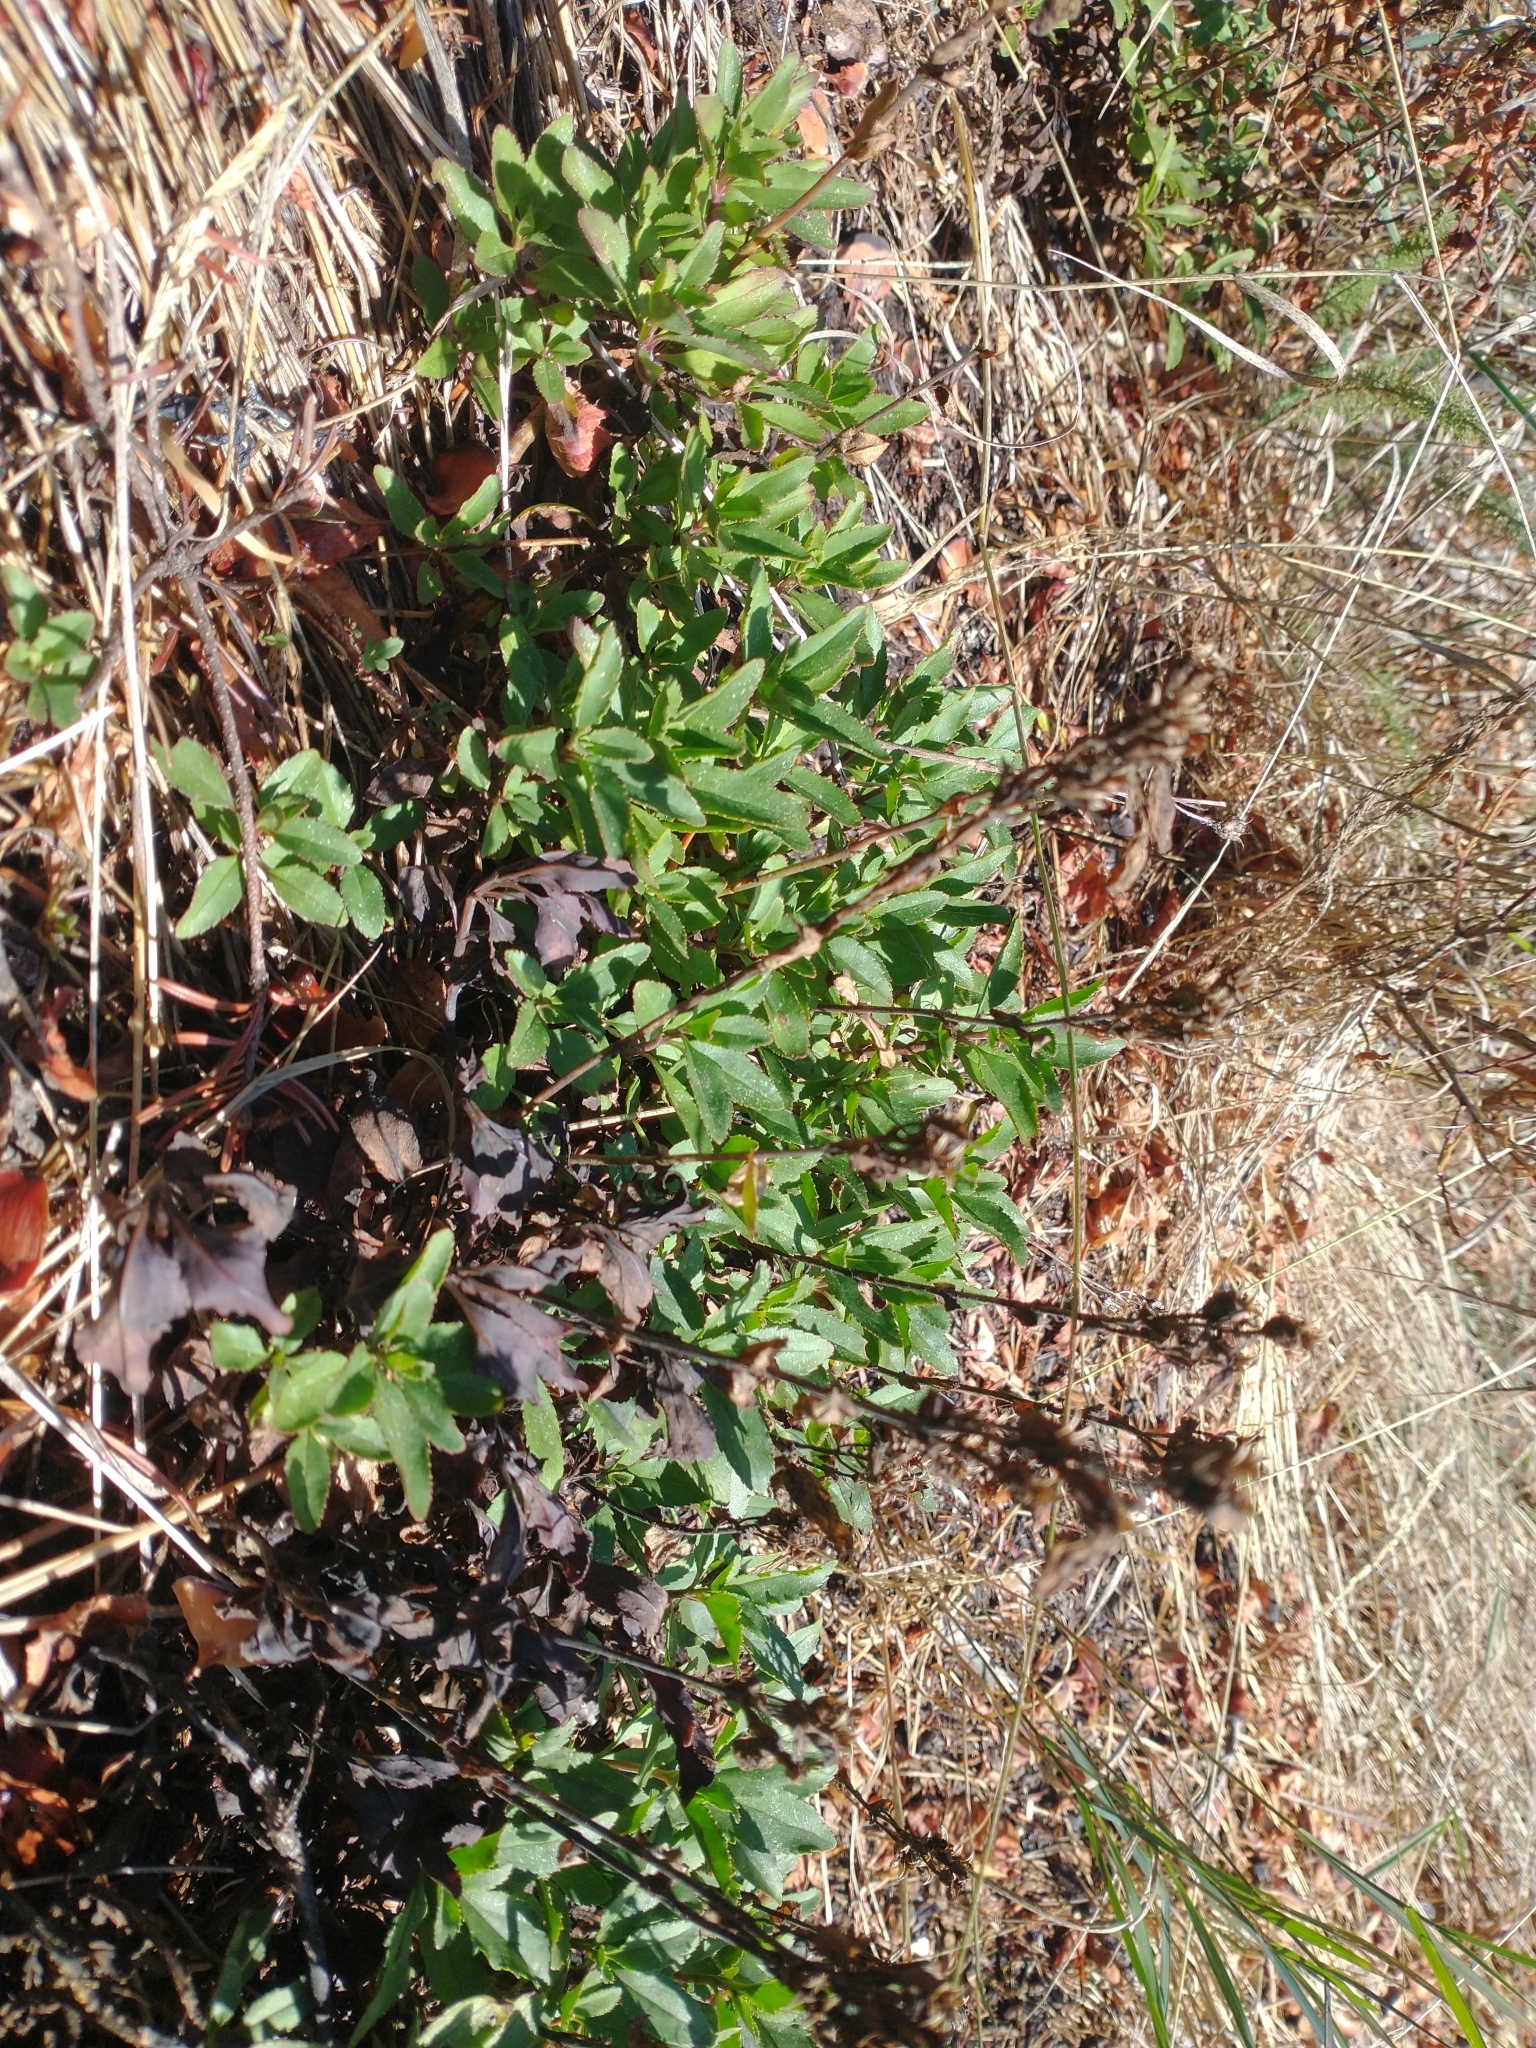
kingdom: Plantae
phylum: Tracheophyta
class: Magnoliopsida
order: Lamiales
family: Plantaginaceae
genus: Penstemon
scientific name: Penstemon cardwellii
